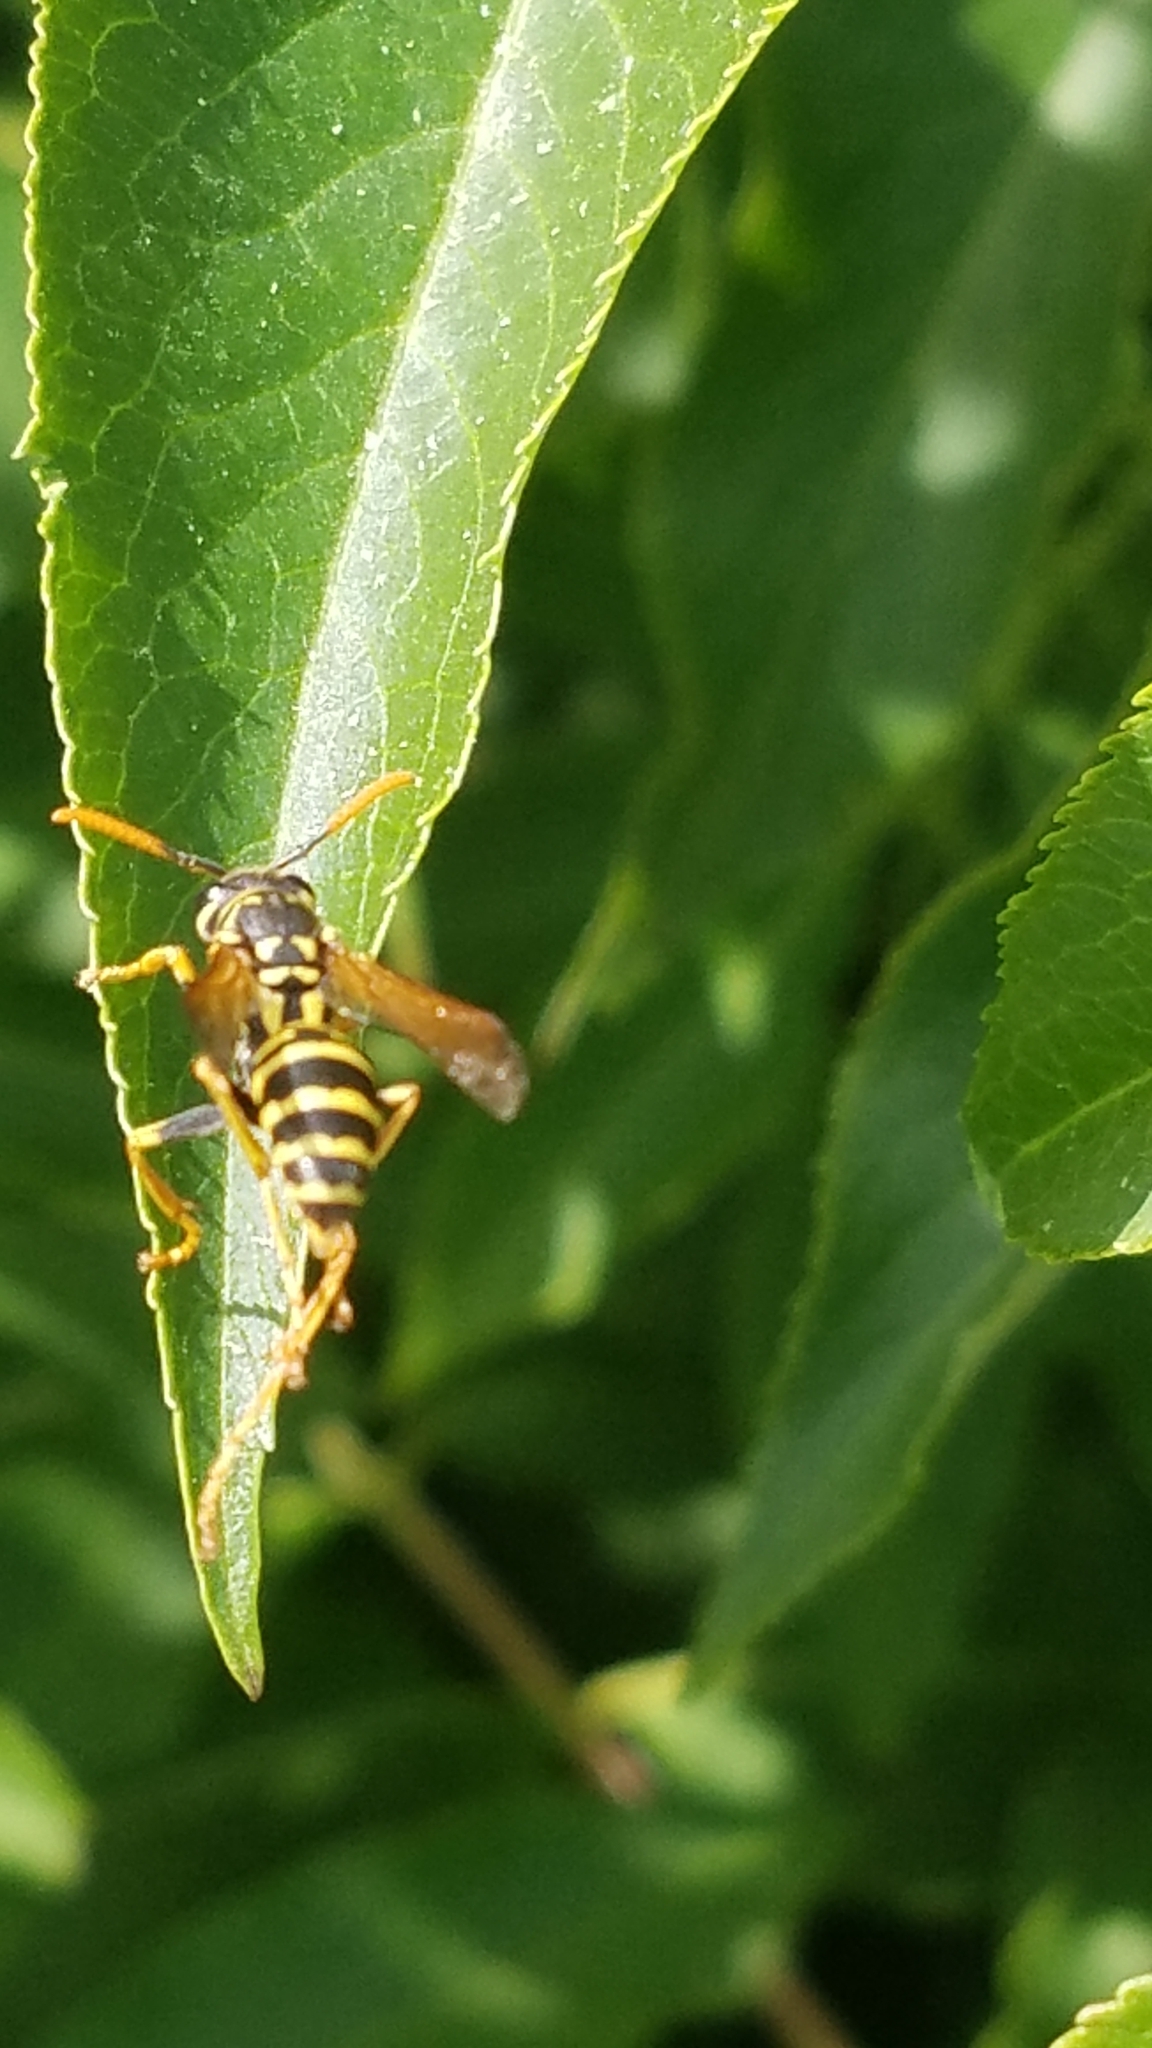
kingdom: Animalia
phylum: Arthropoda
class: Insecta
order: Hymenoptera
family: Eumenidae
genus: Polistes
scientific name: Polistes dominula
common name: Paper wasp
